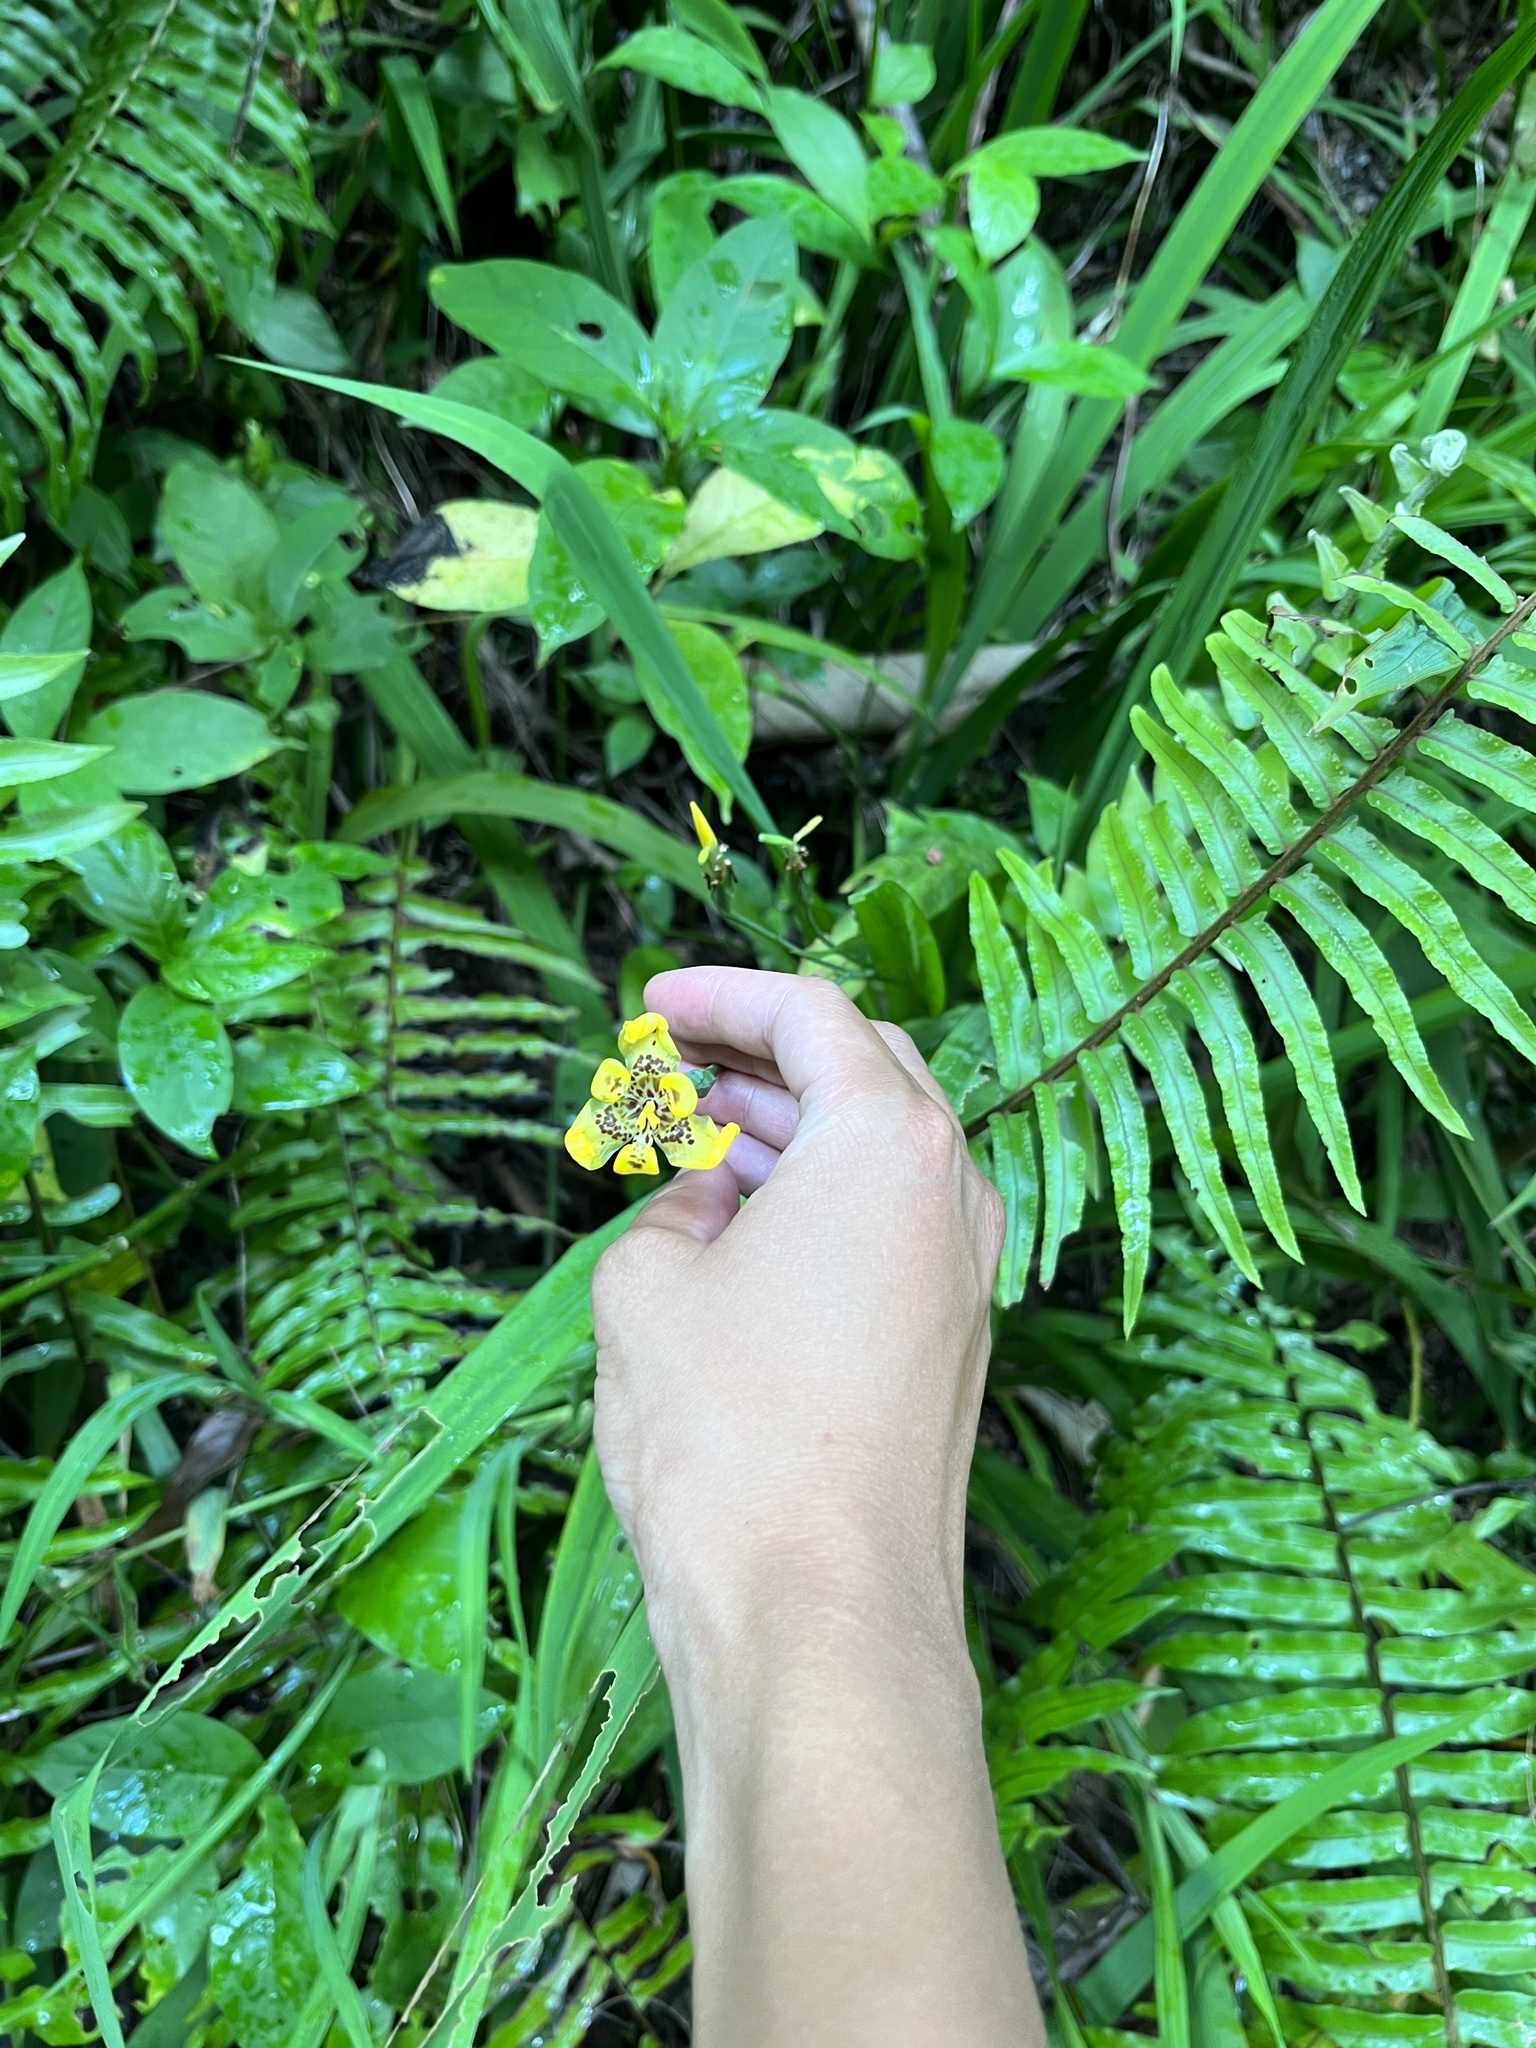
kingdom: Plantae
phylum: Tracheophyta
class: Liliopsida
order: Asparagales
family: Iridaceae
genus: Trimezia
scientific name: Trimezia steyermarkii
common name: Trimezia
